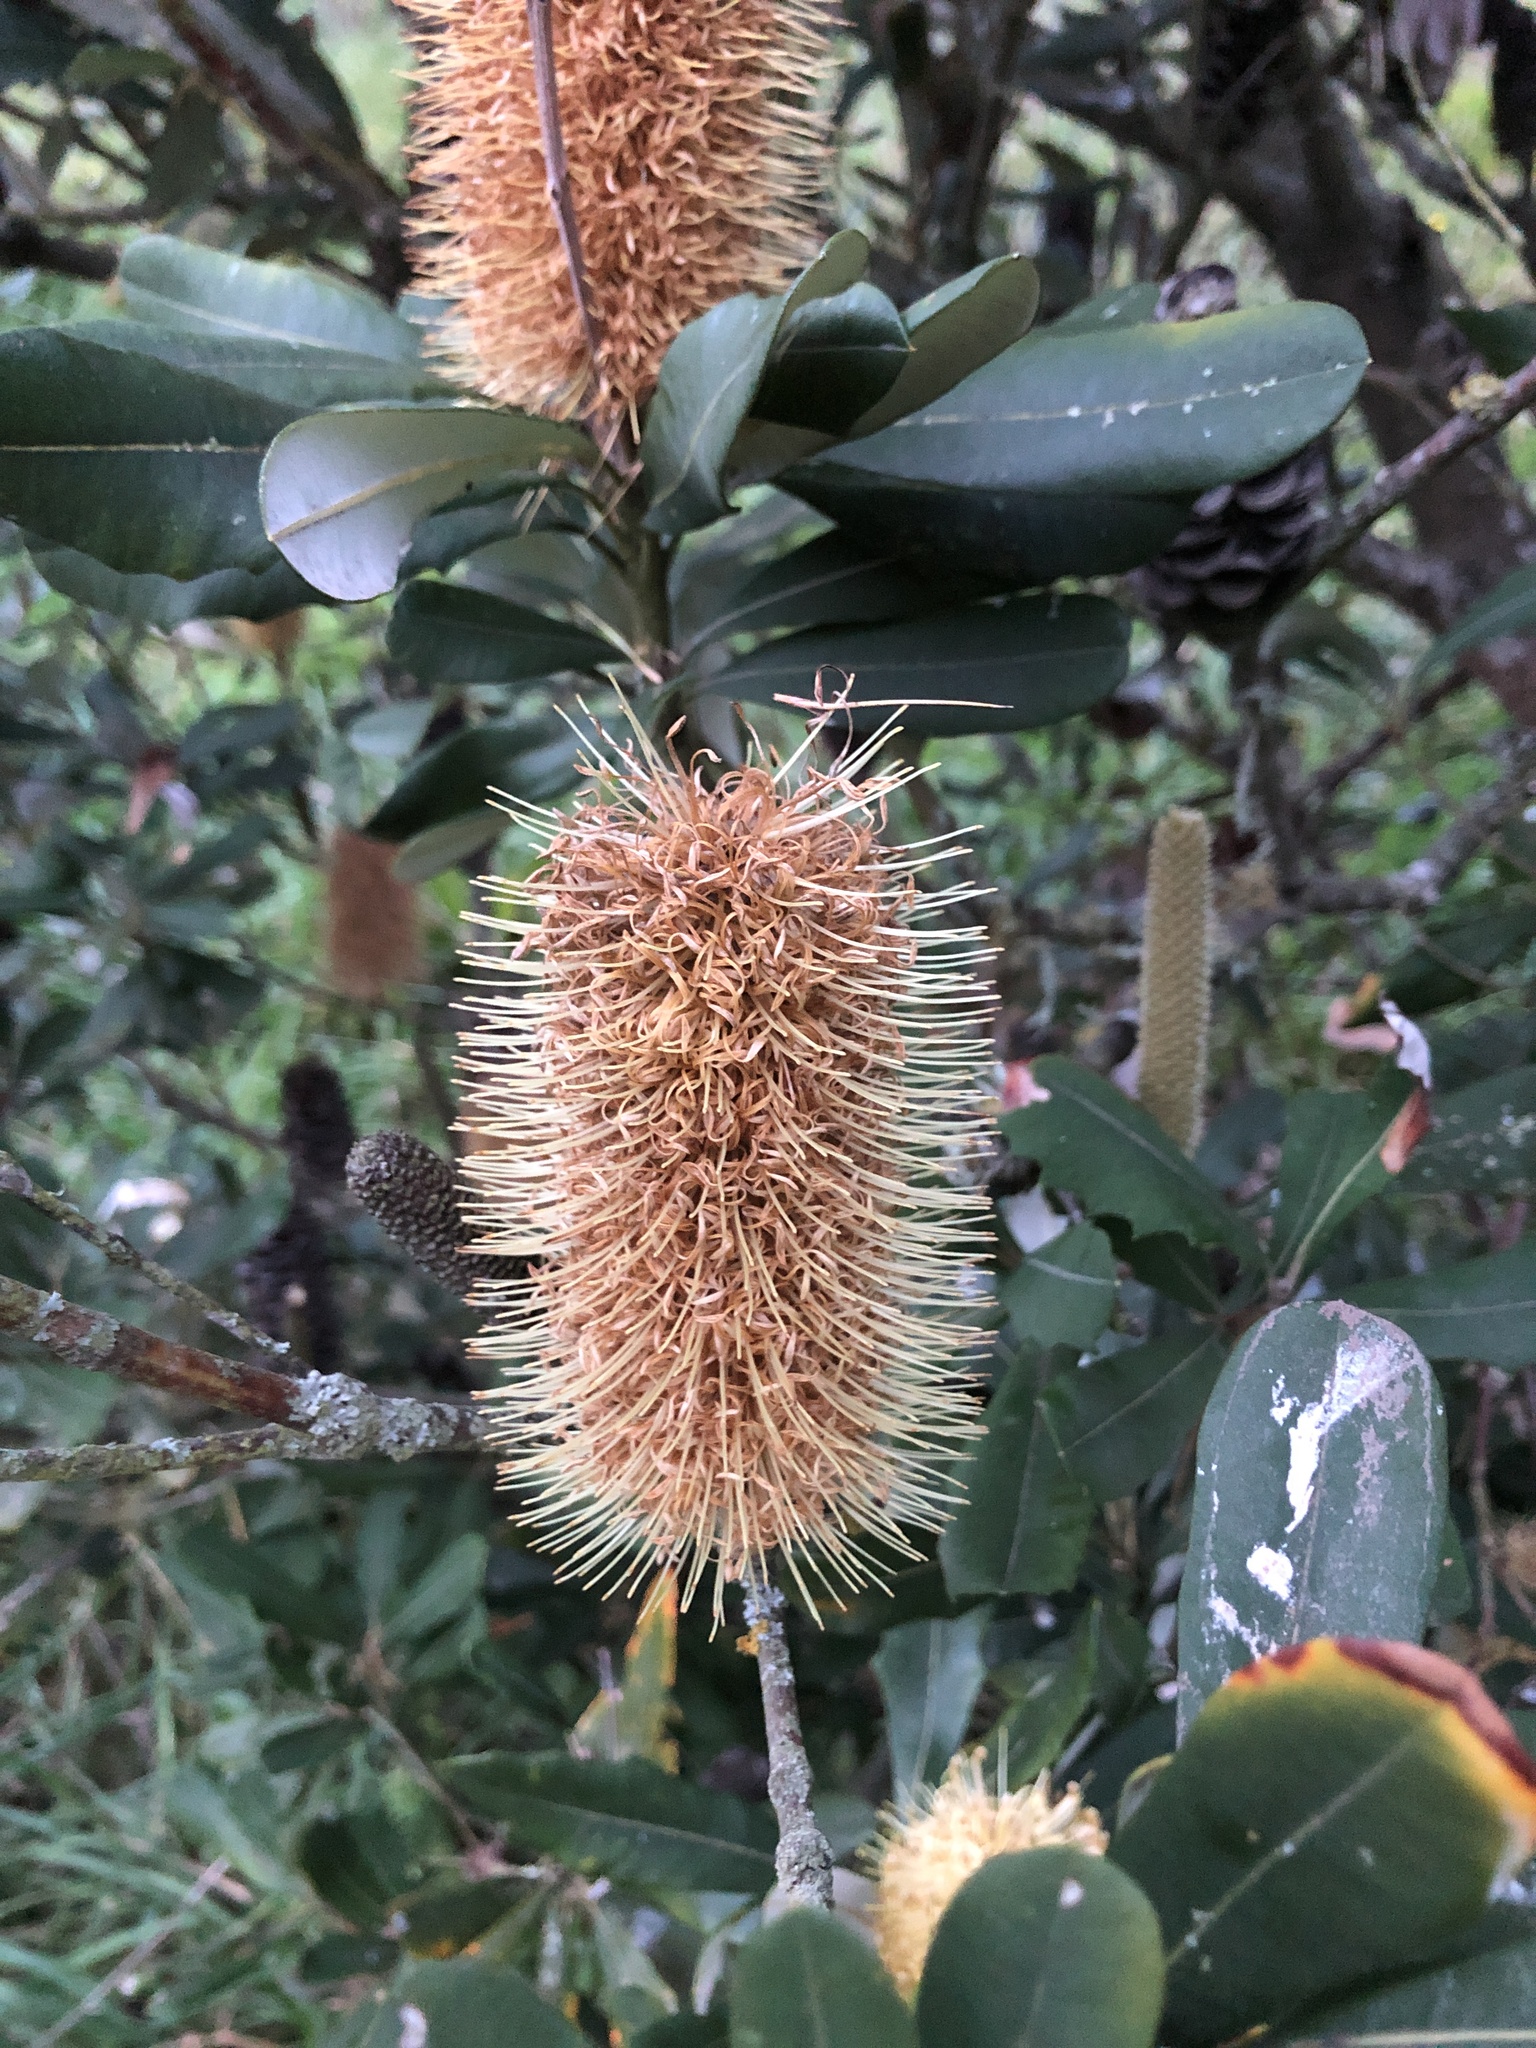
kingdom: Plantae
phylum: Tracheophyta
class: Magnoliopsida
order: Proteales
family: Proteaceae
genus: Banksia
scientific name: Banksia integrifolia
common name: White-honeysuckle
